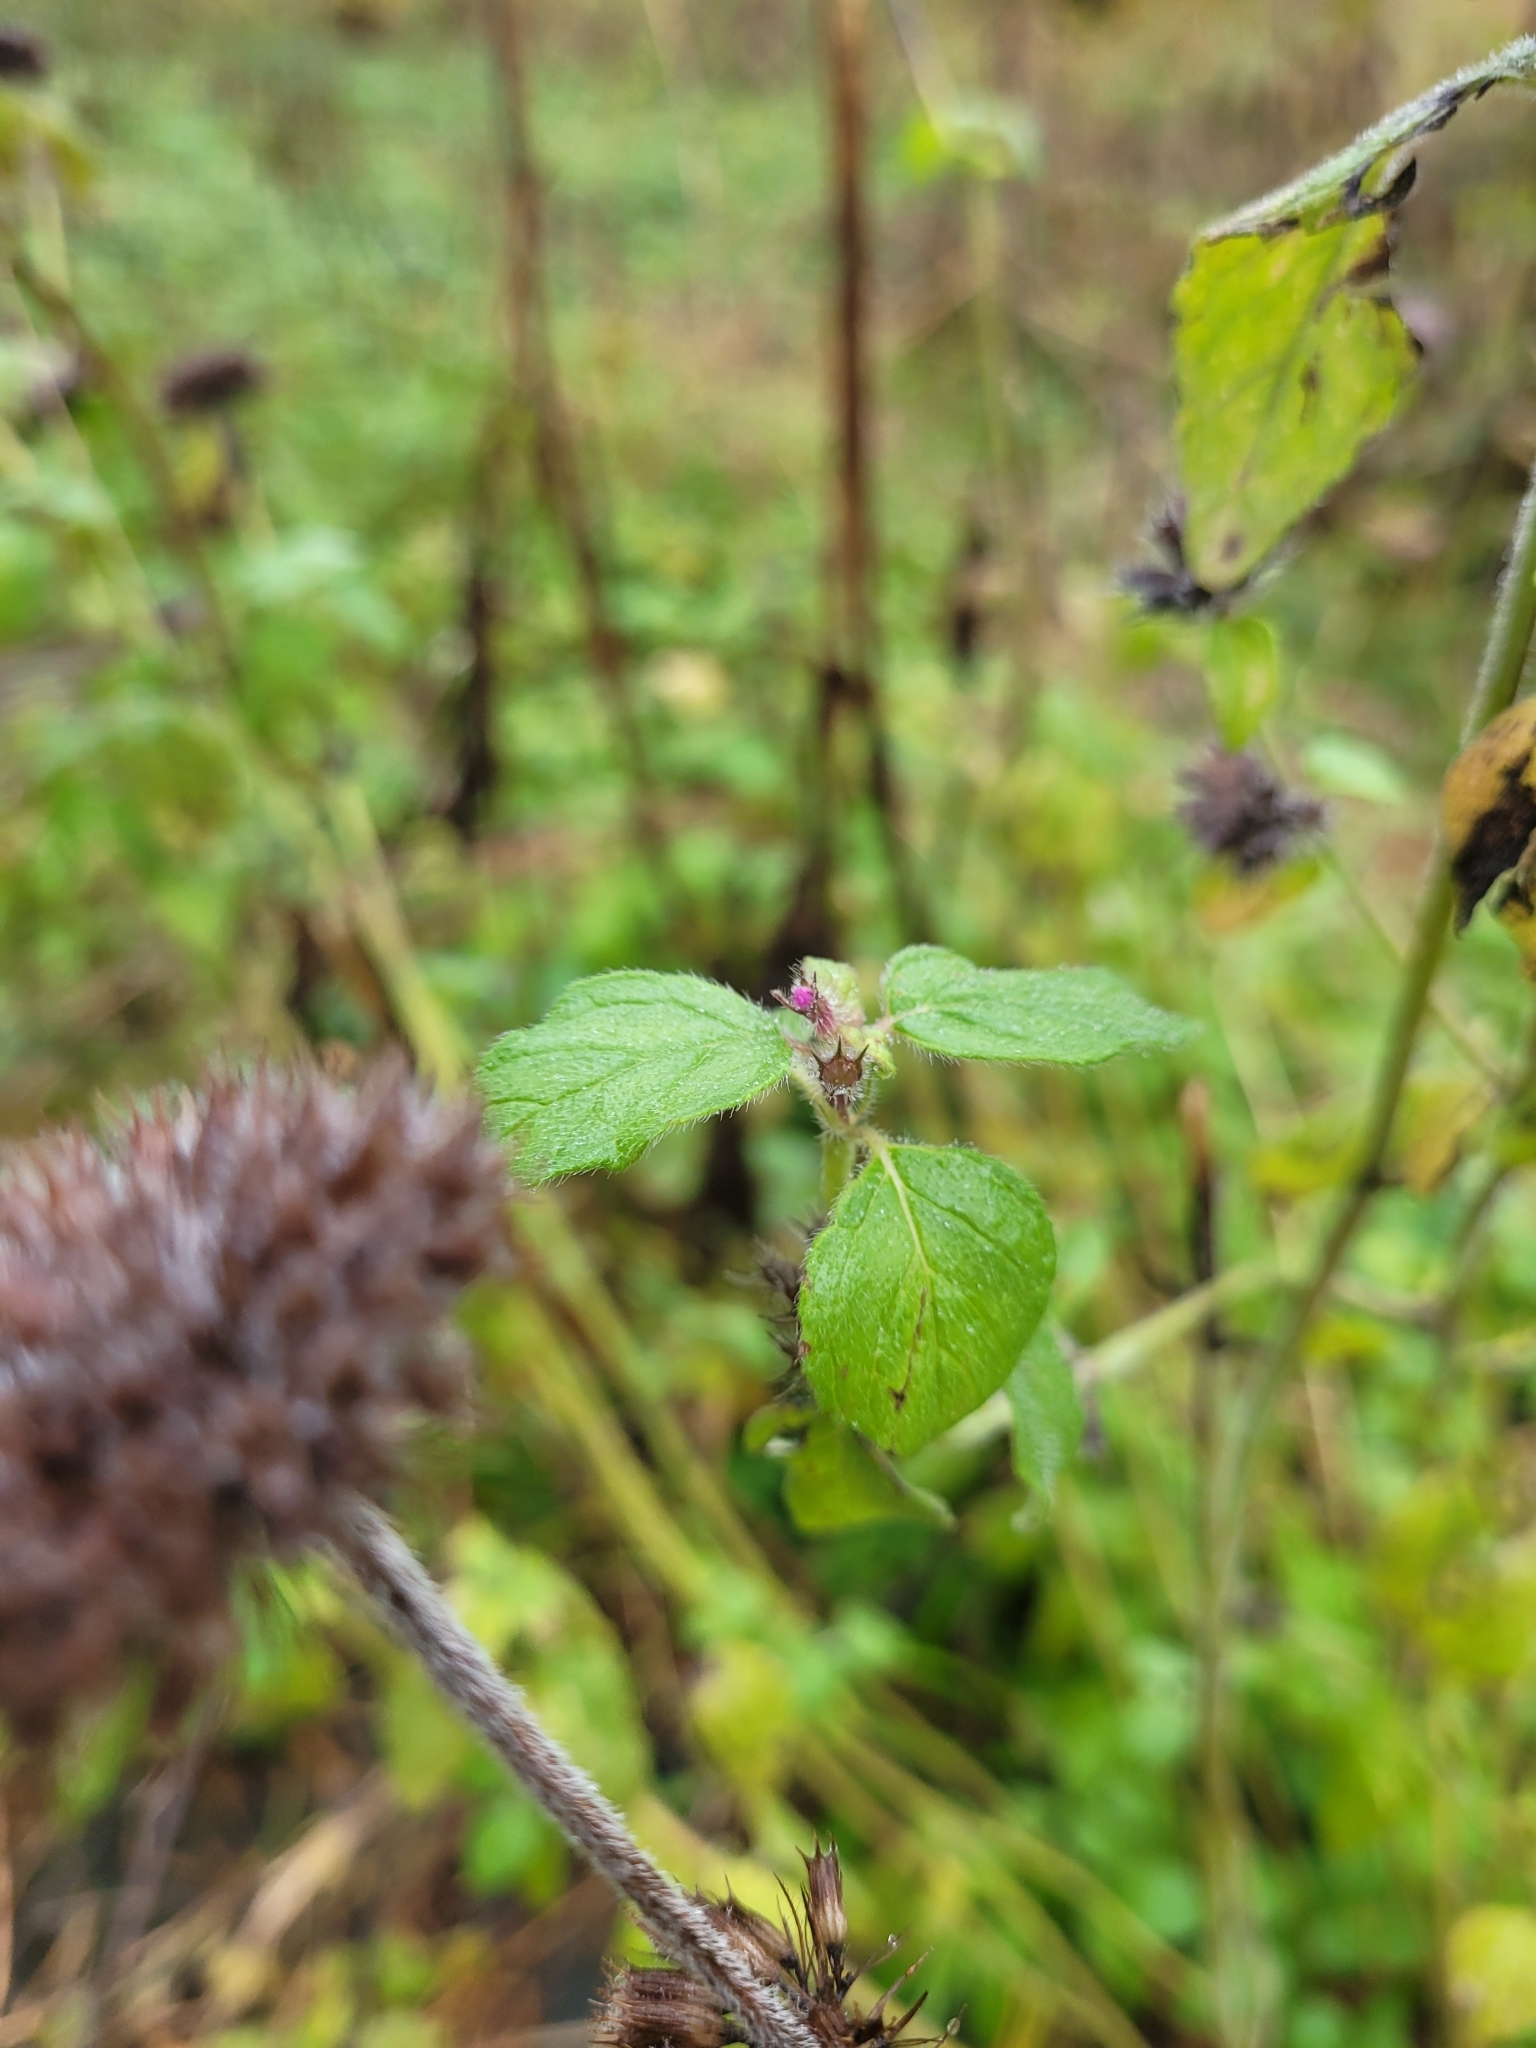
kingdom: Plantae
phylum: Tracheophyta
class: Magnoliopsida
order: Lamiales
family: Lamiaceae
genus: Clinopodium
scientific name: Clinopodium vulgare
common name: Wild basil
